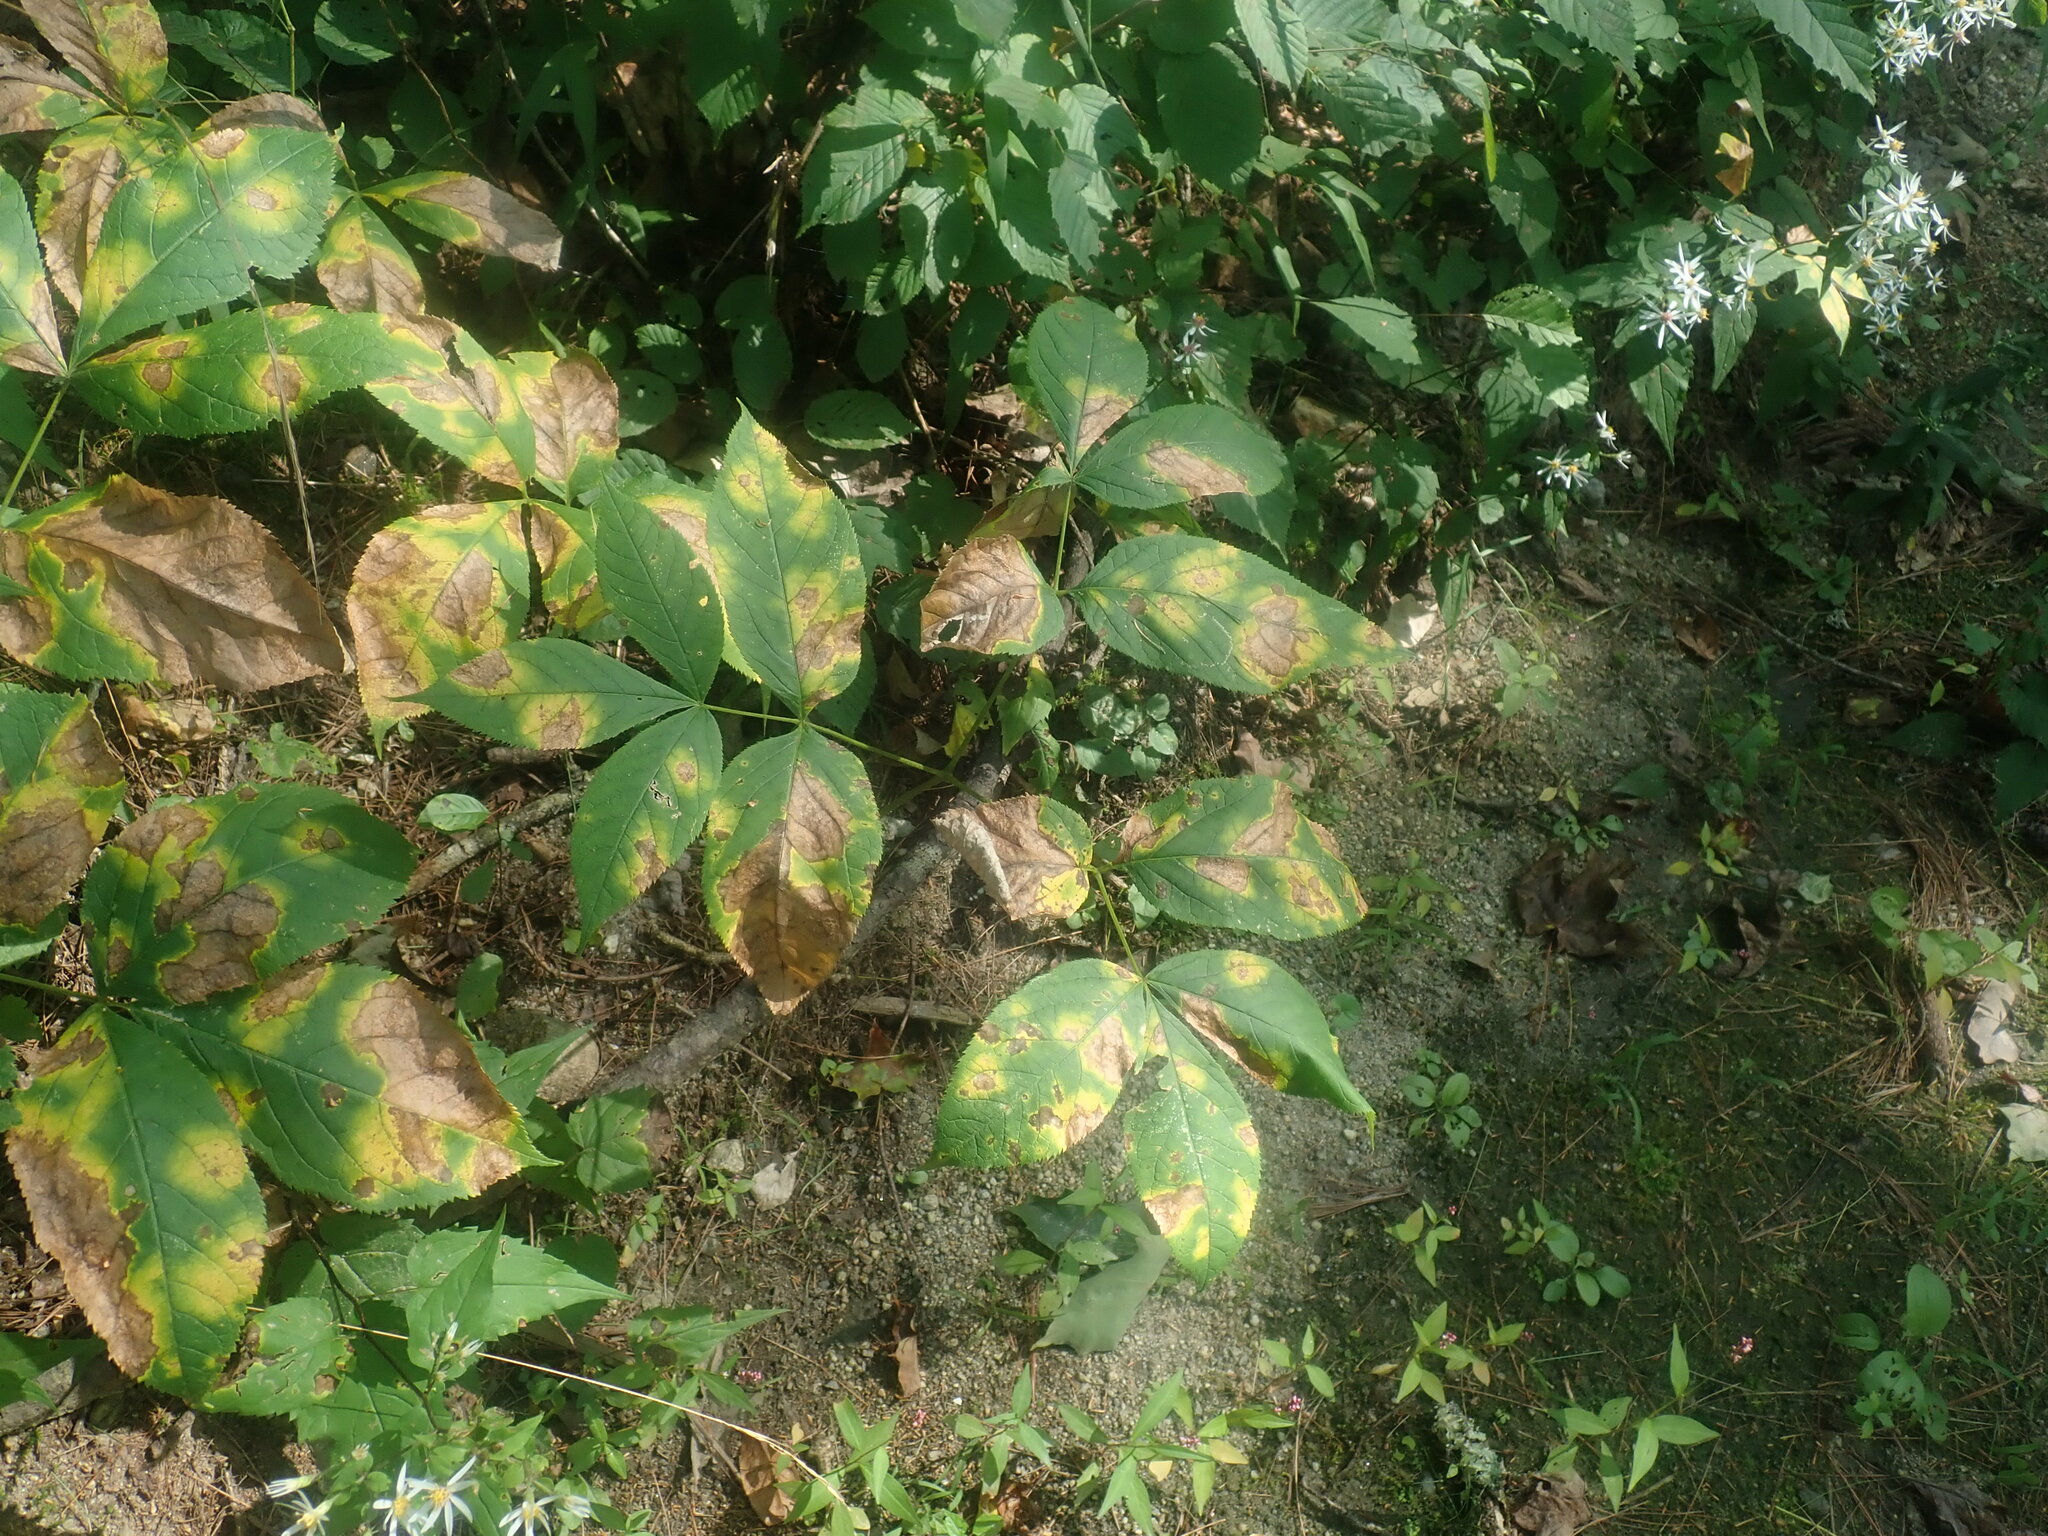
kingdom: Plantae
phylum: Tracheophyta
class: Magnoliopsida
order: Apiales
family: Araliaceae
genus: Aralia
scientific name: Aralia nudicaulis
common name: Wild sarsaparilla
